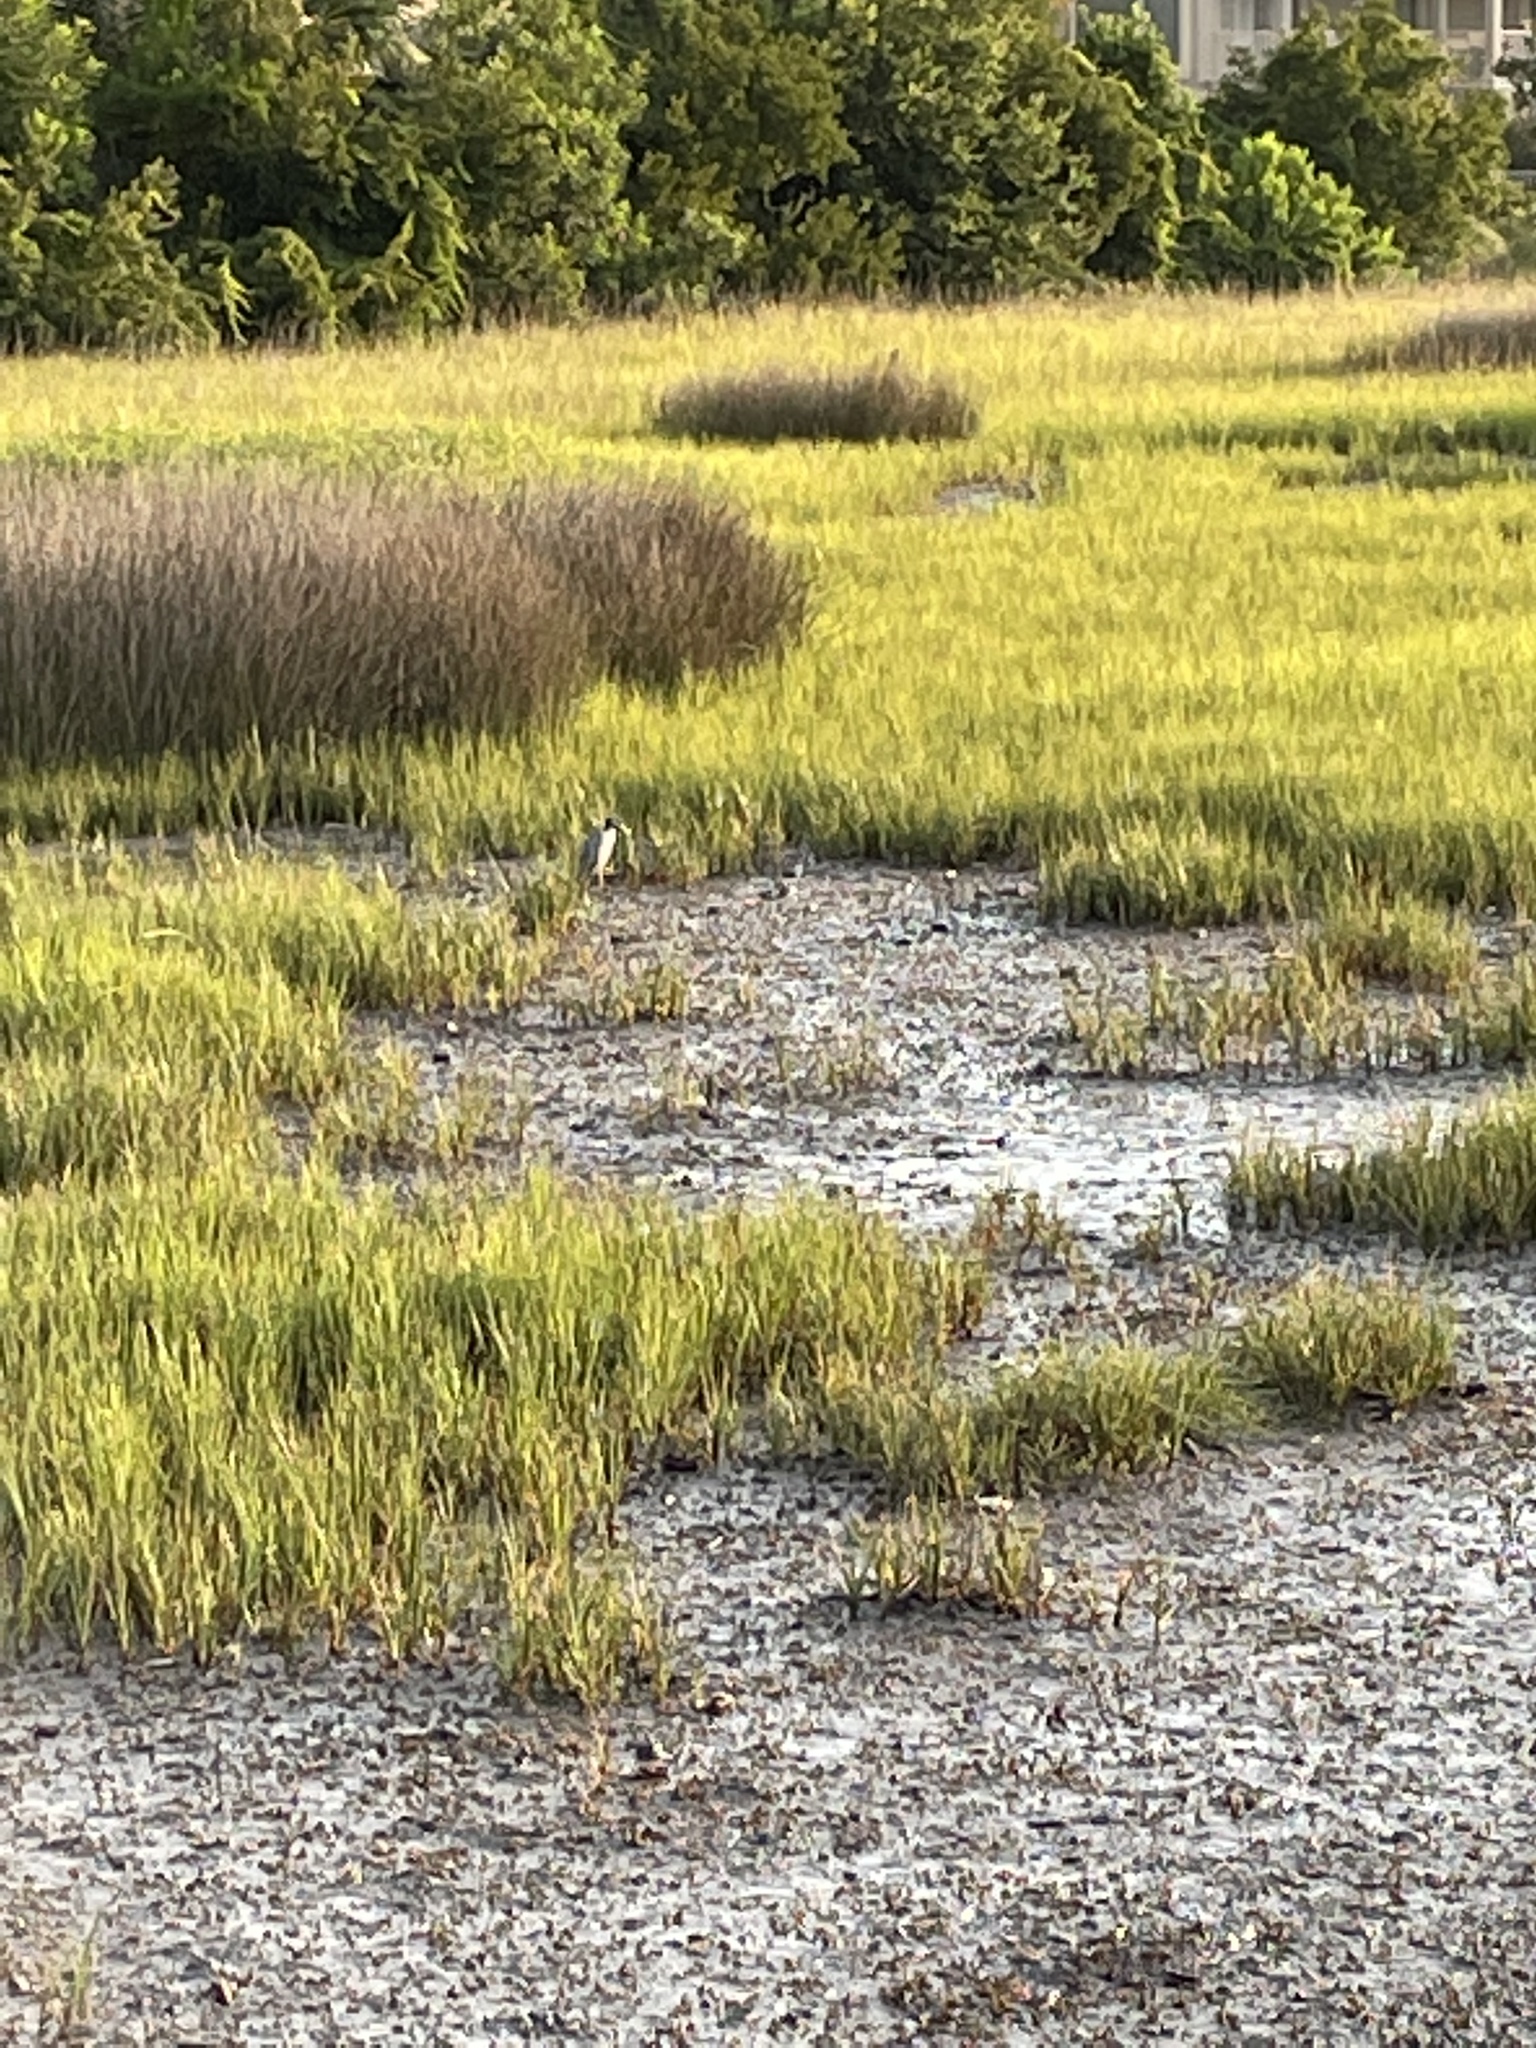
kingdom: Animalia
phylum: Chordata
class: Aves
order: Pelecaniformes
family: Ardeidae
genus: Nyctanassa
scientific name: Nyctanassa violacea
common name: Yellow-crowned night heron
